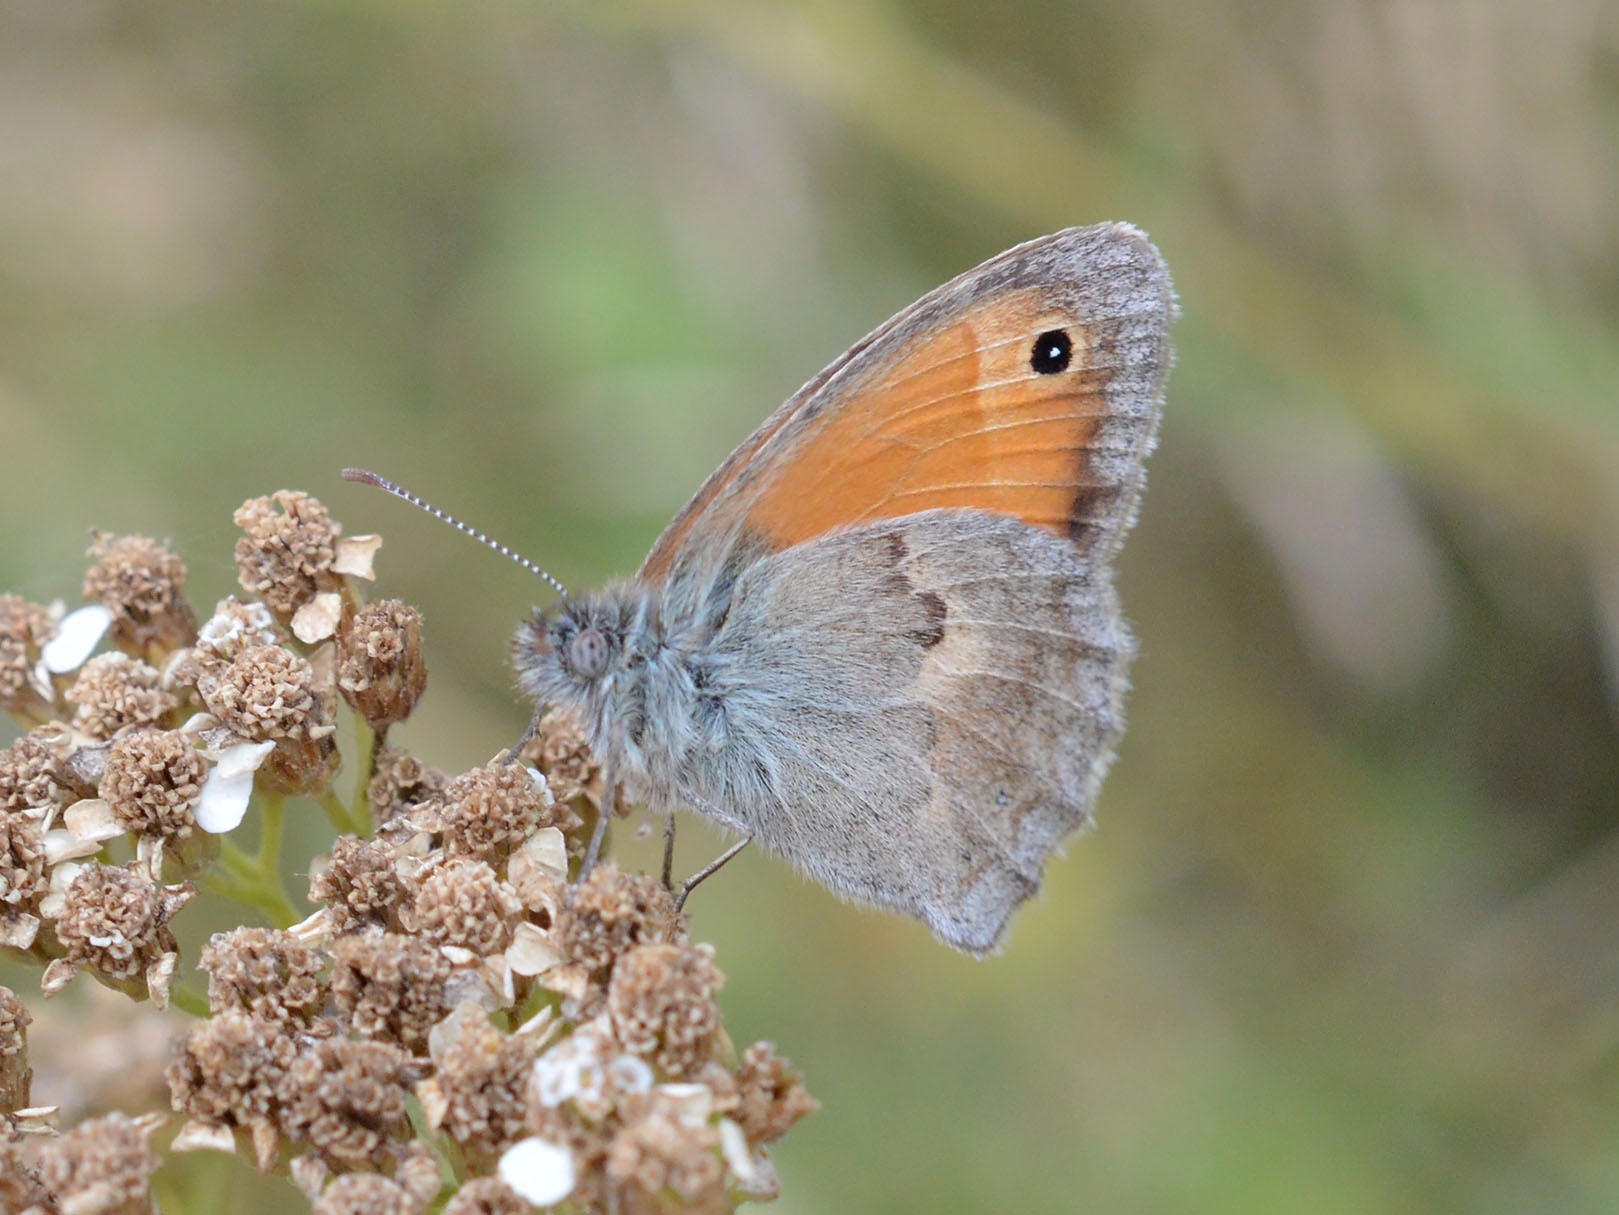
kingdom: Animalia
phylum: Arthropoda
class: Insecta
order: Lepidoptera
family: Nymphalidae
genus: Coenonympha
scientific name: Coenonympha pamphilus
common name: Small heath
